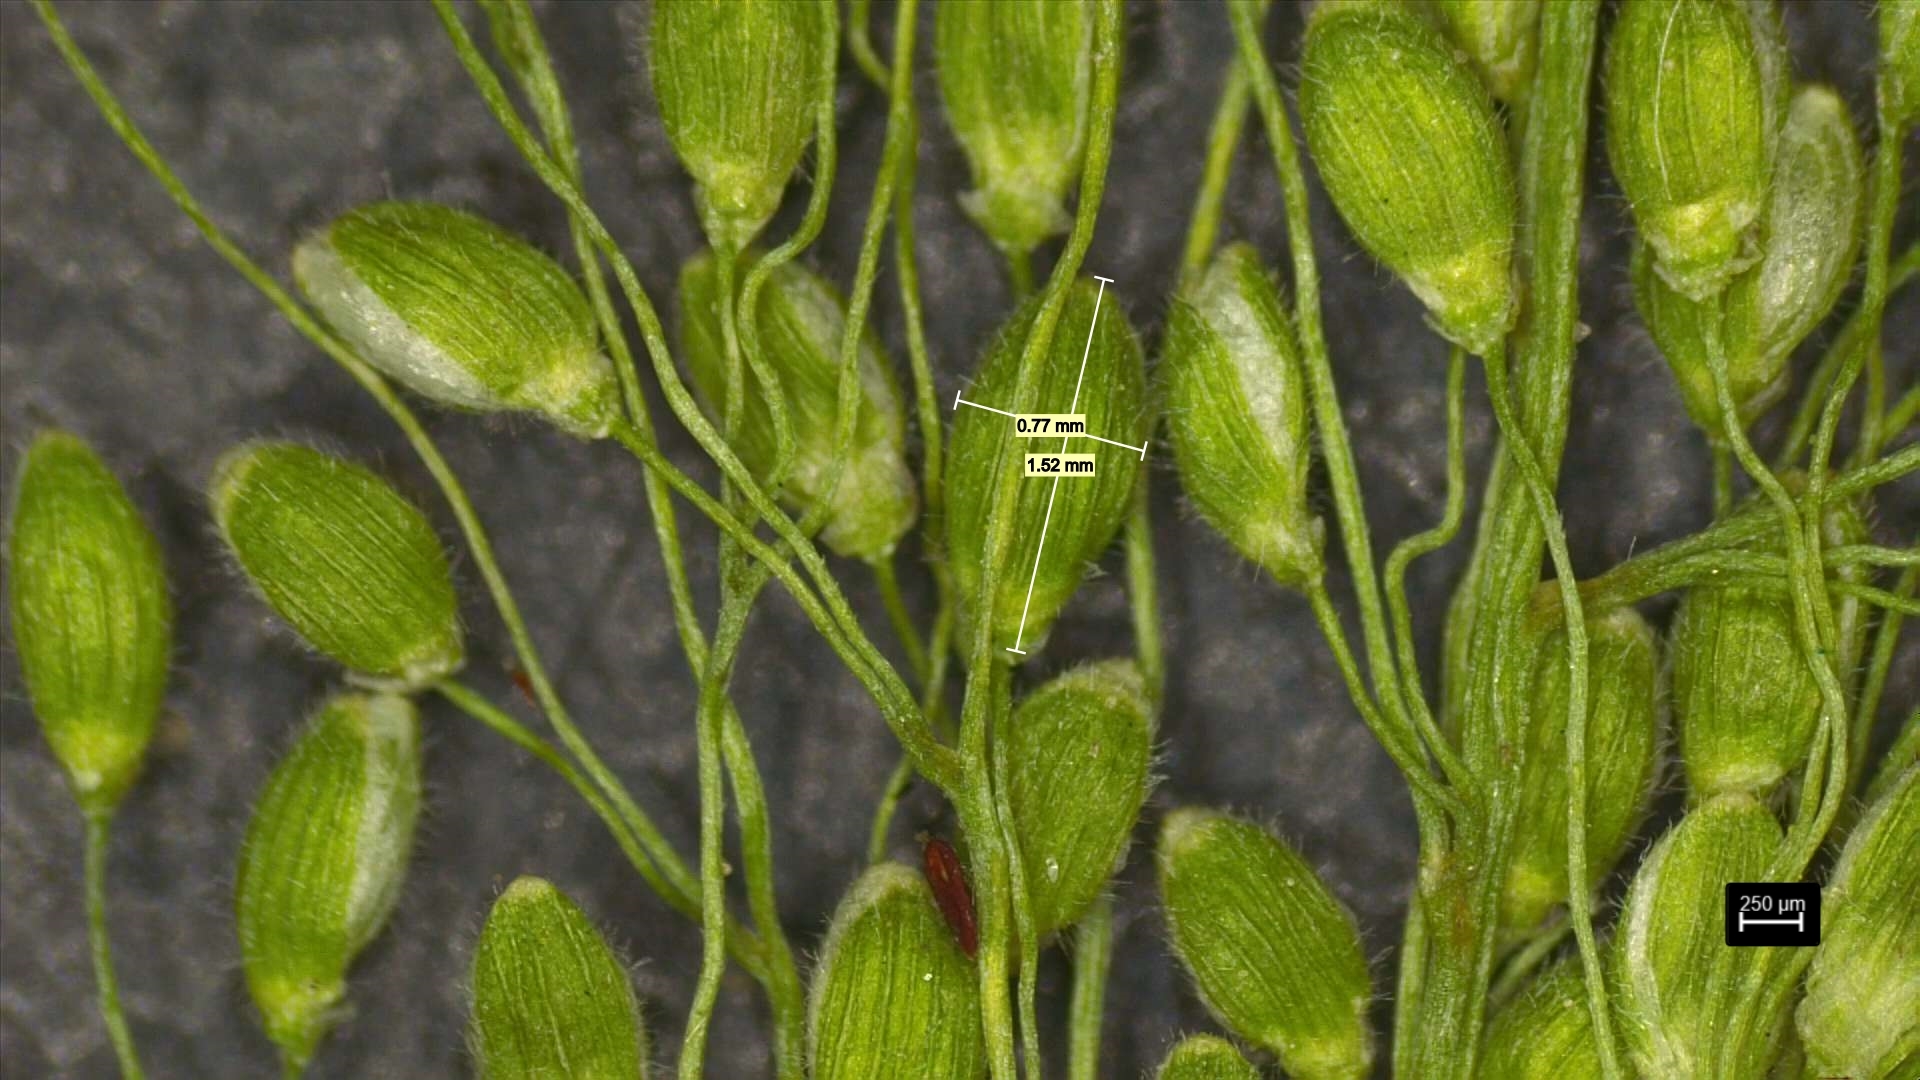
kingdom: Plantae
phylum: Tracheophyta
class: Liliopsida
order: Poales
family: Poaceae
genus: Dichanthelium
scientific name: Dichanthelium lindheimeri
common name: Lindheimer's panicgrass
